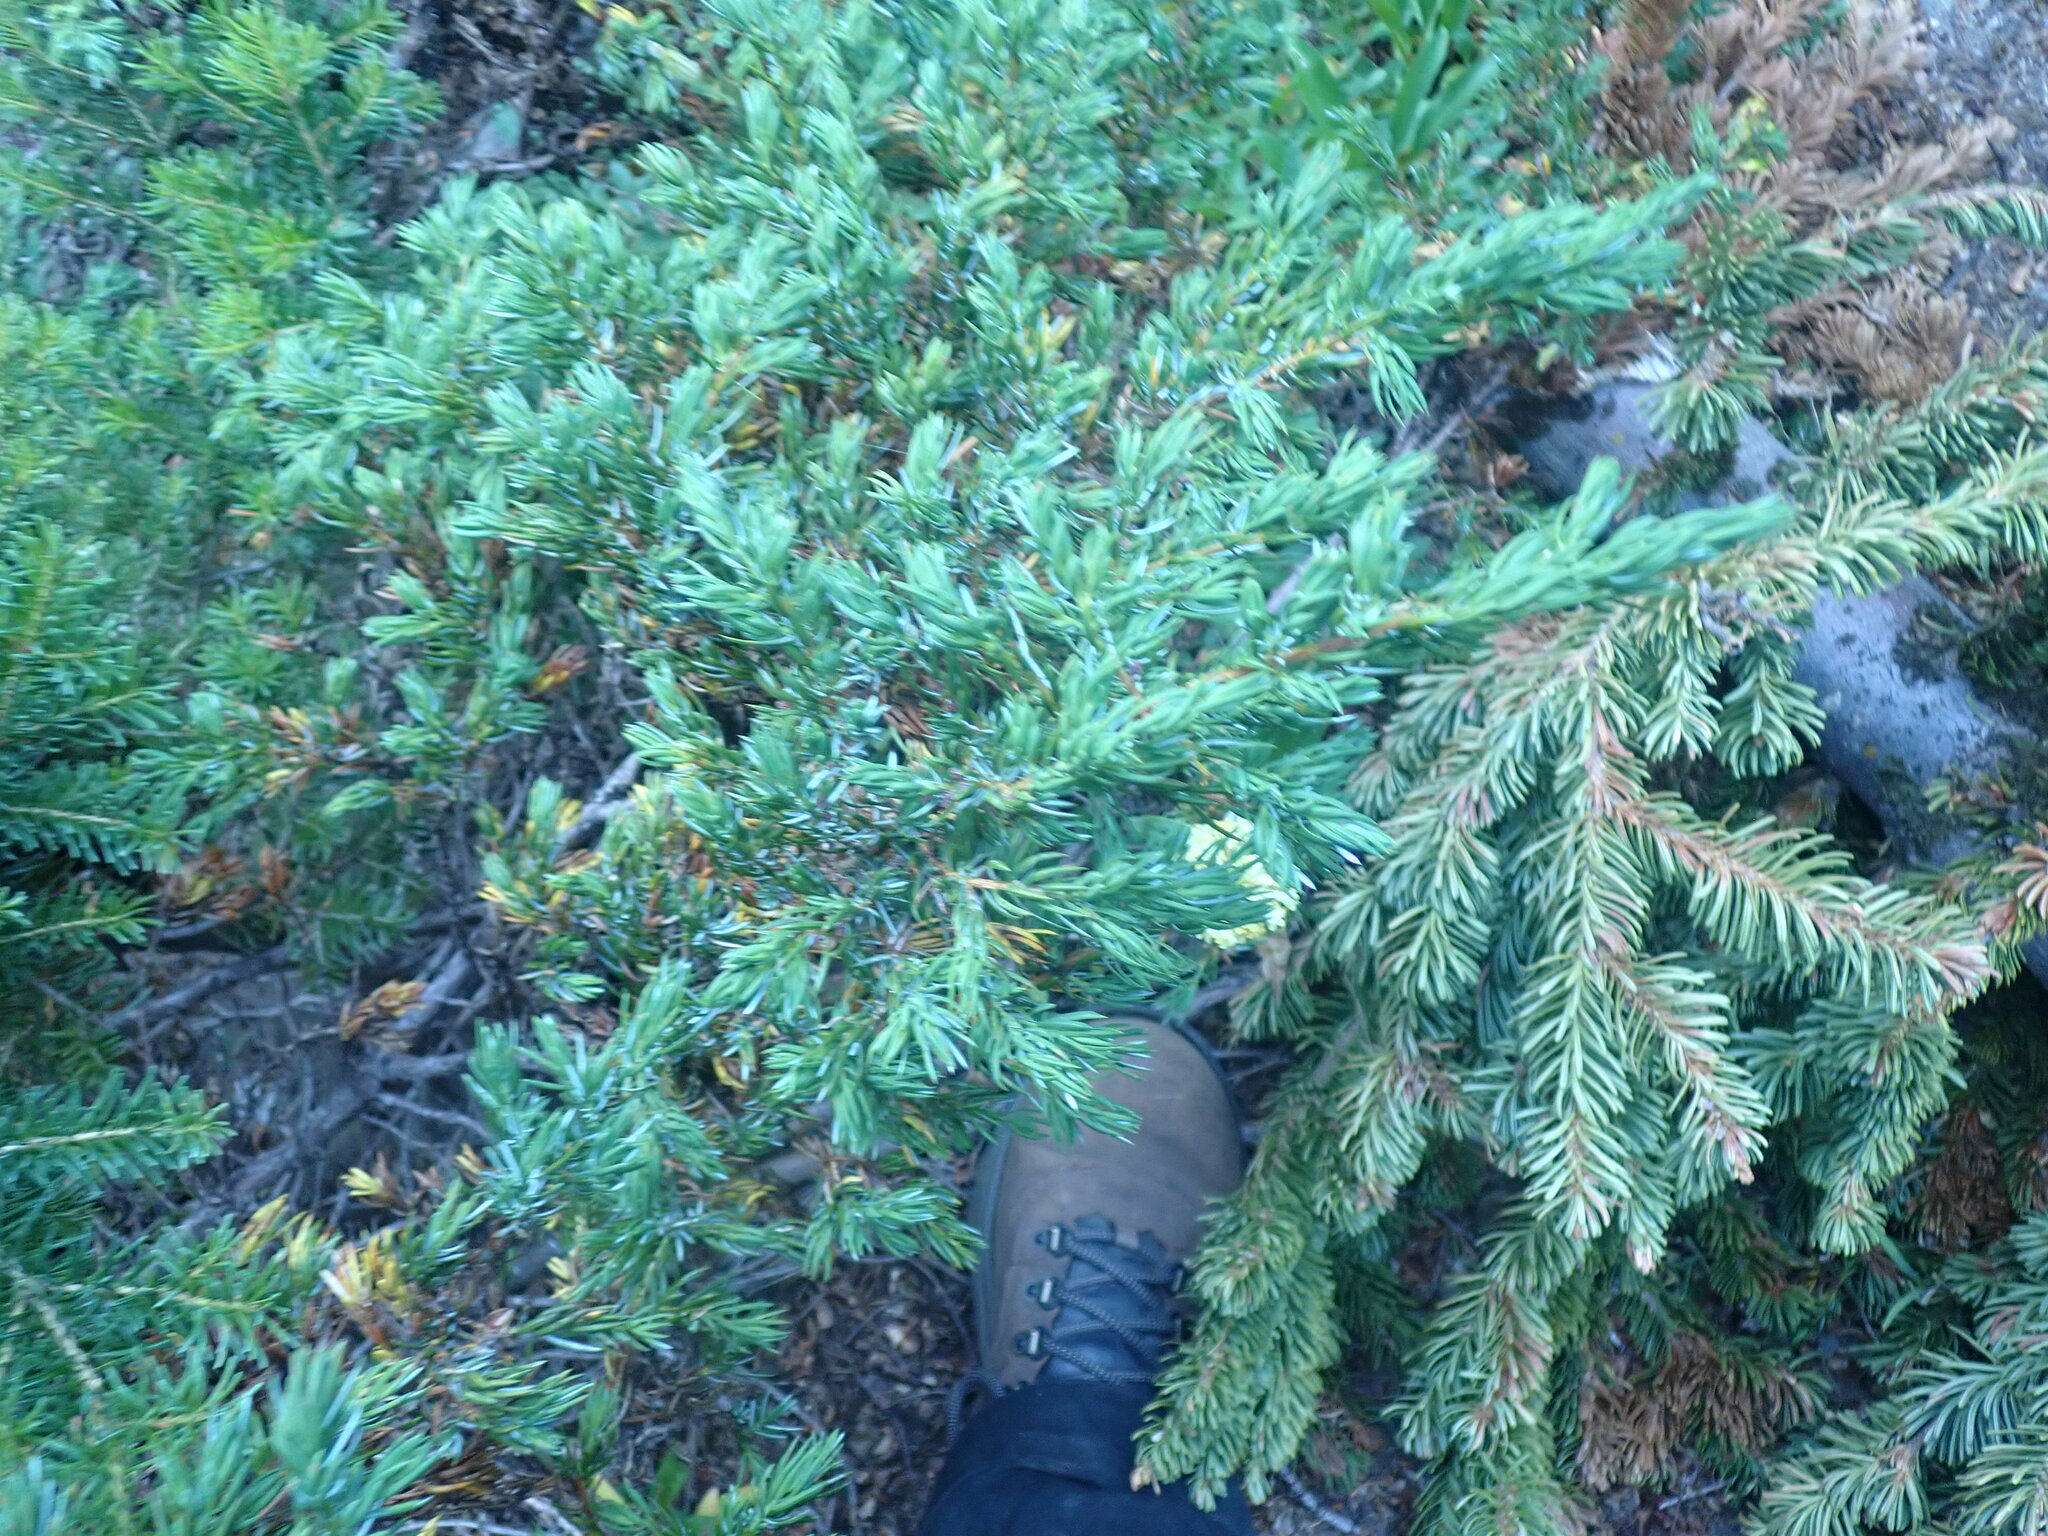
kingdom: Plantae
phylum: Tracheophyta
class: Pinopsida
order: Pinales
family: Cupressaceae
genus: Juniperus
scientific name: Juniperus communis
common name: Common juniper
